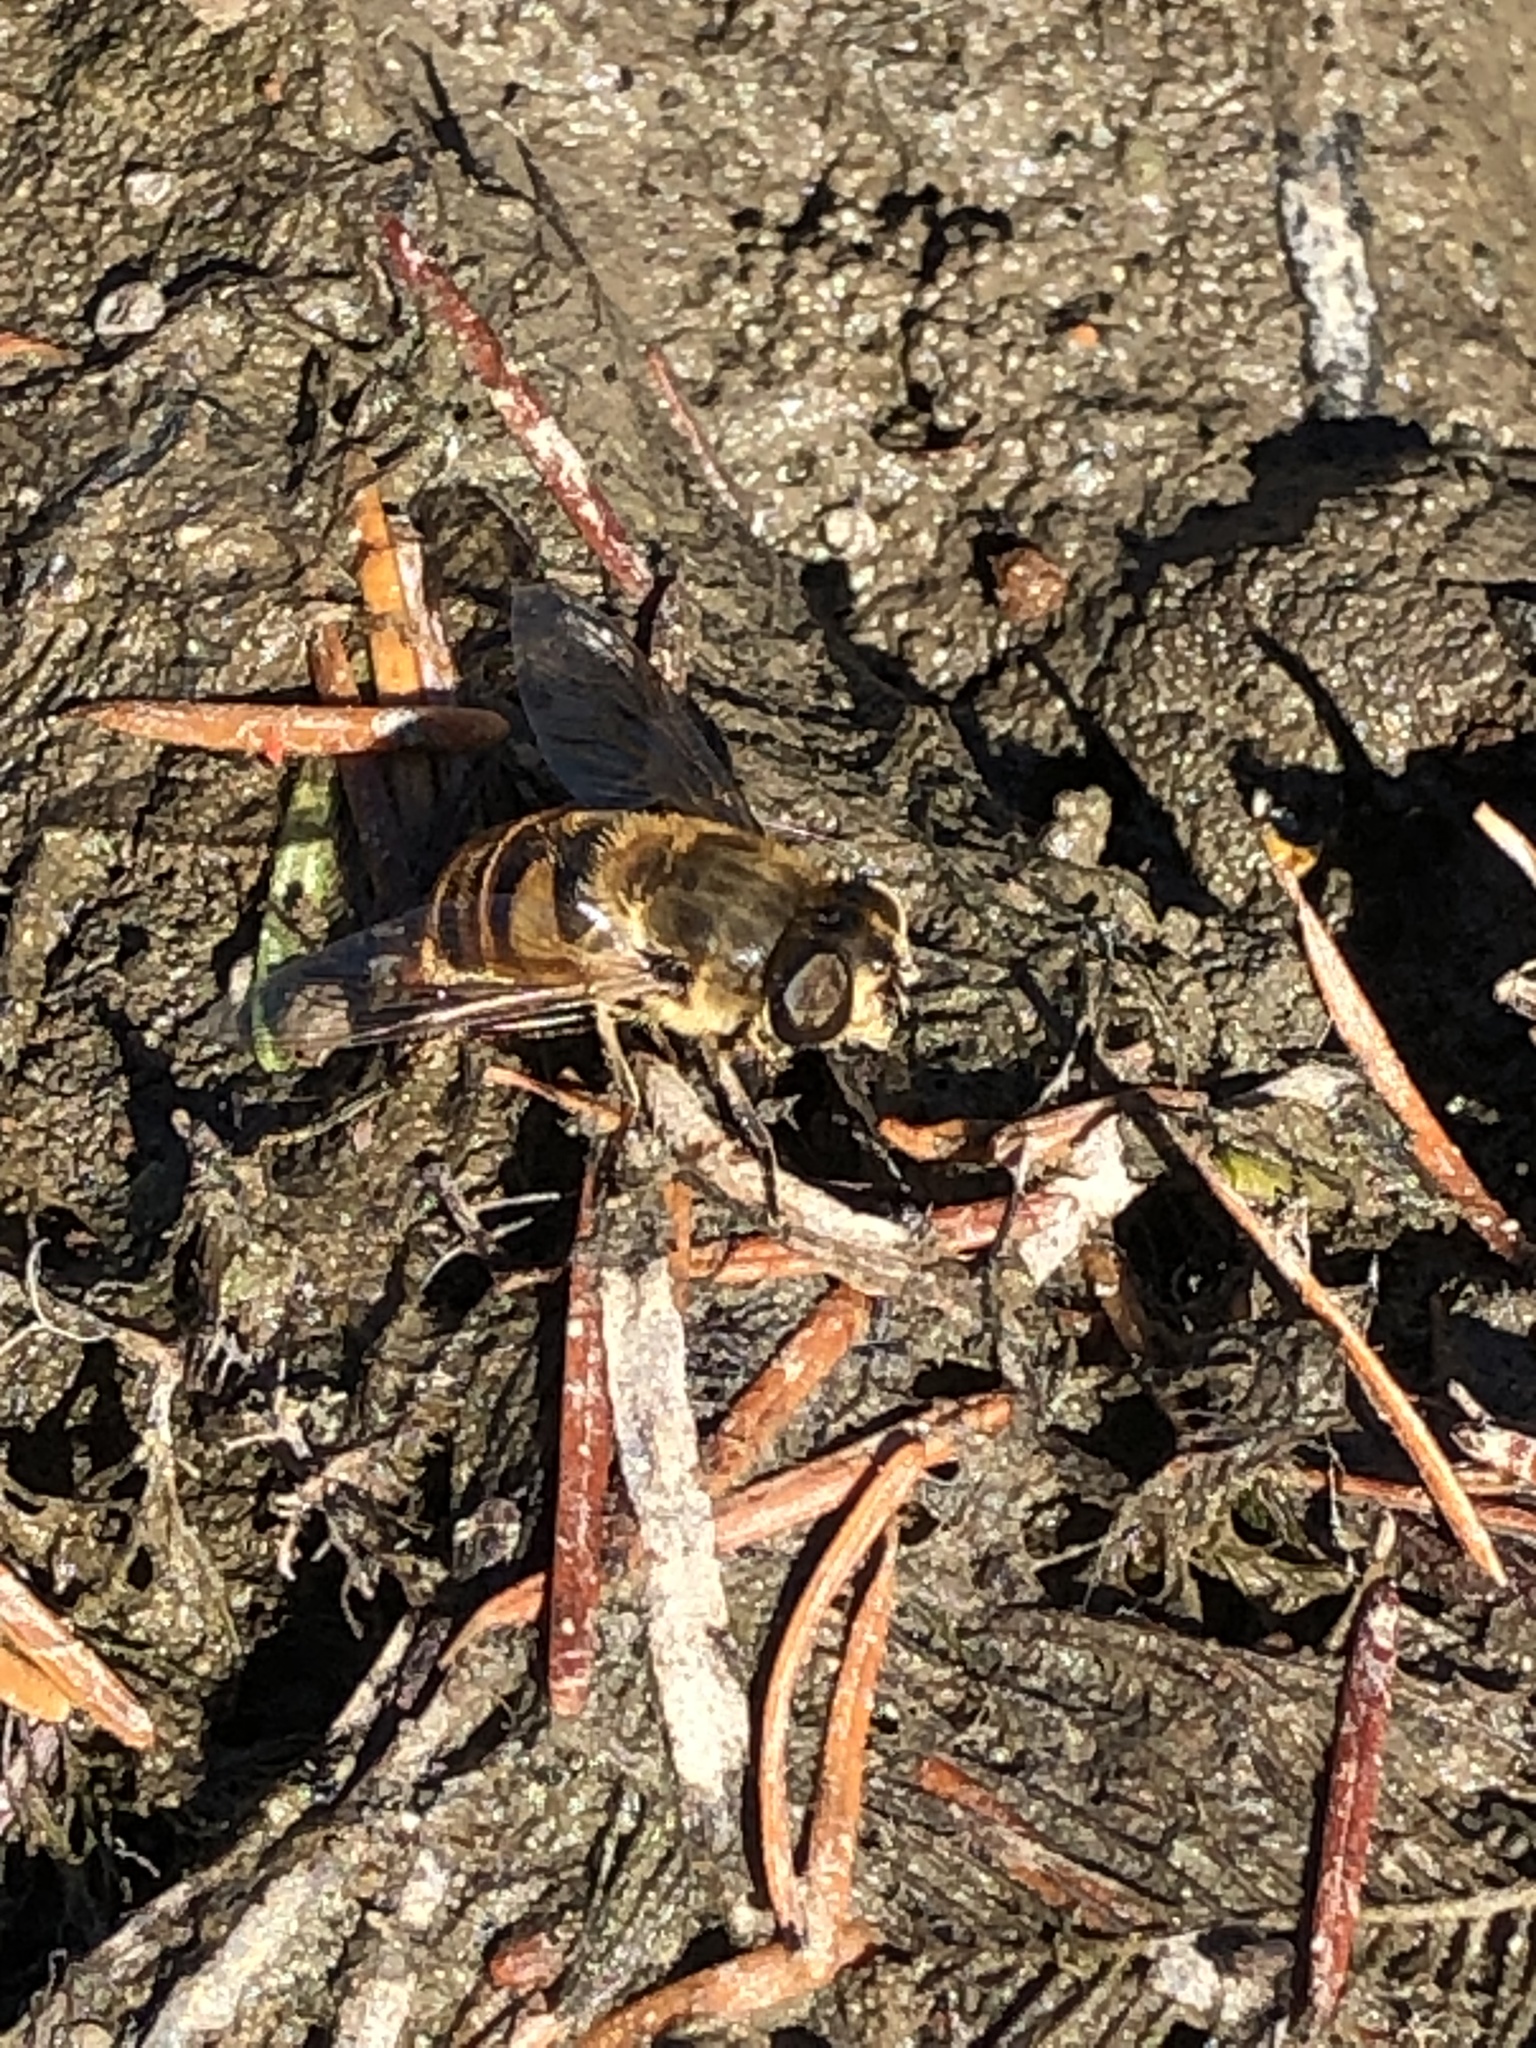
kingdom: Animalia
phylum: Arthropoda
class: Insecta
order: Diptera
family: Syrphidae
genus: Eristalis
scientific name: Eristalis tenax
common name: Drone fly
